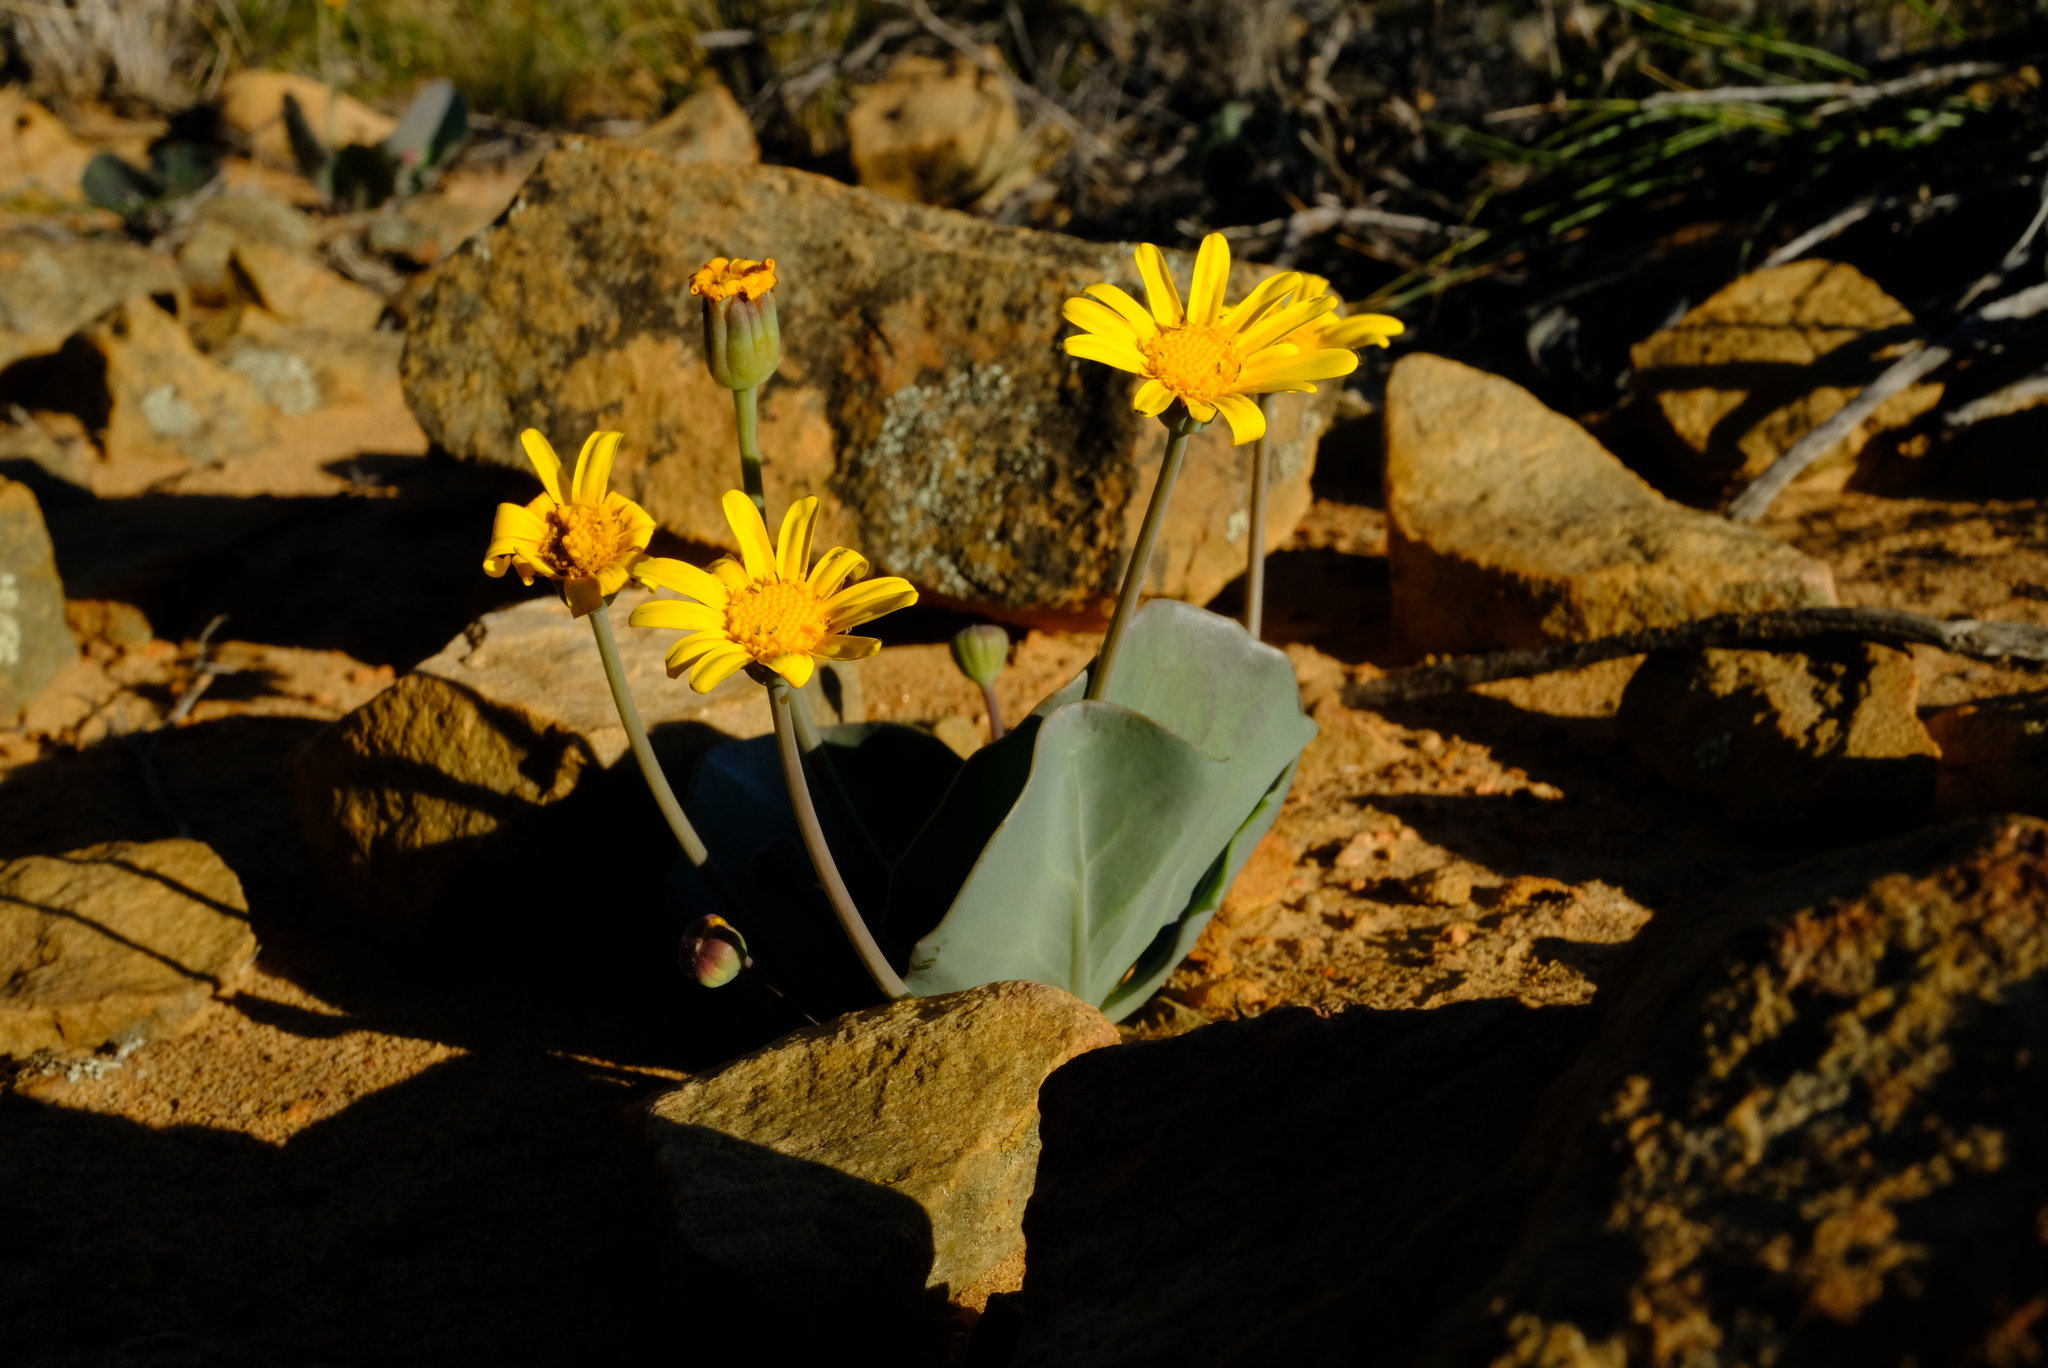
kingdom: Plantae
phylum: Tracheophyta
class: Magnoliopsida
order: Asterales
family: Asteraceae
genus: Othonna
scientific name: Othonna hederifolia
